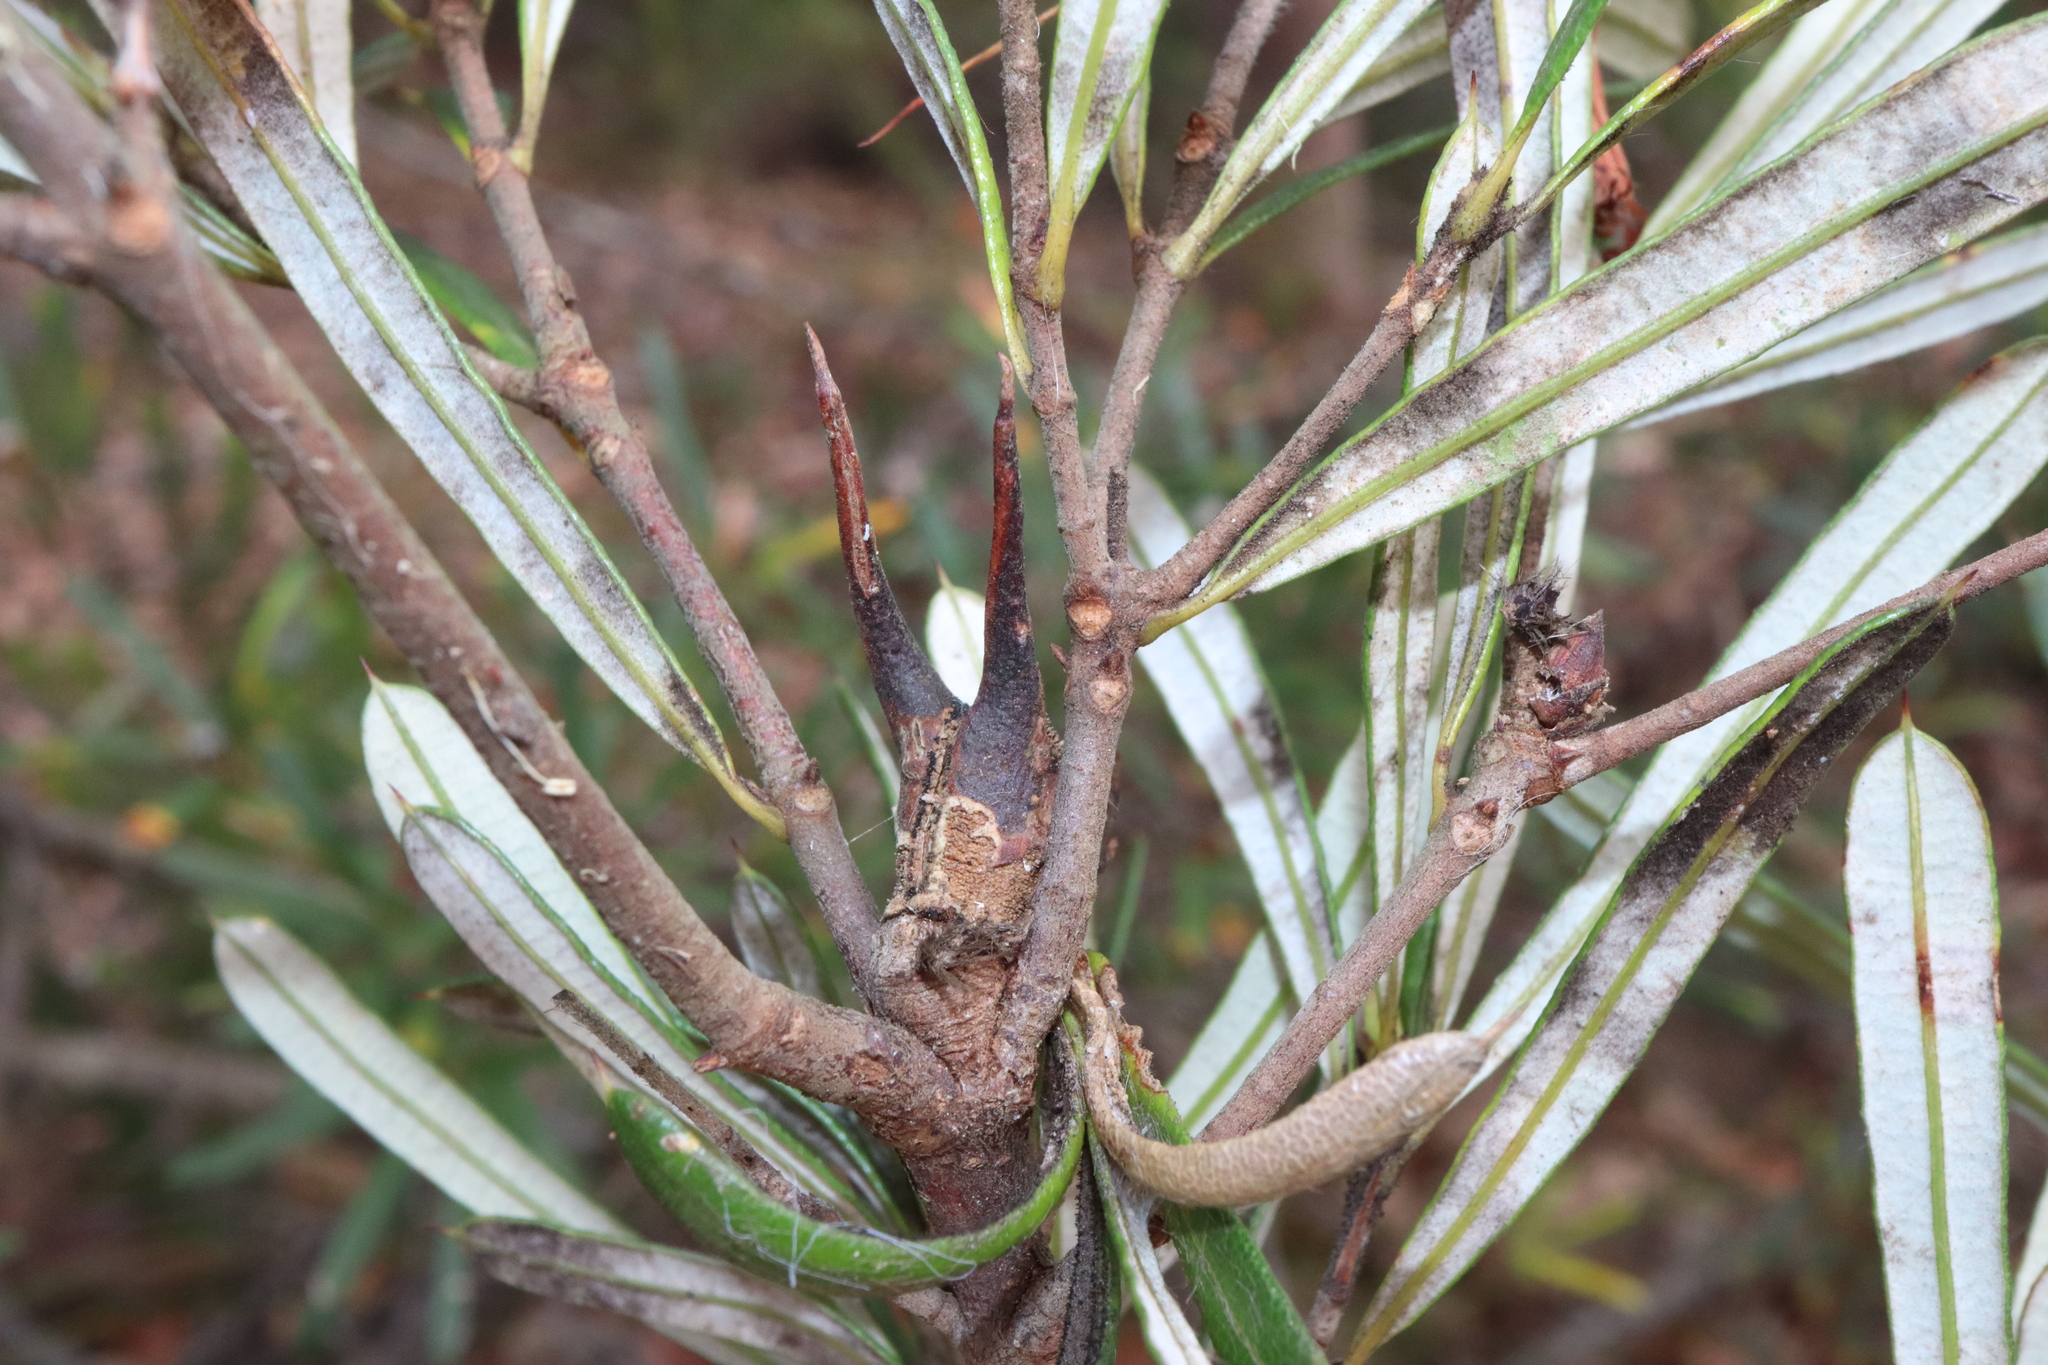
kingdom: Plantae
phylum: Tracheophyta
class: Magnoliopsida
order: Proteales
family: Proteaceae
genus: Lambertia
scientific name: Lambertia formosa
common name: Mountain-devil
